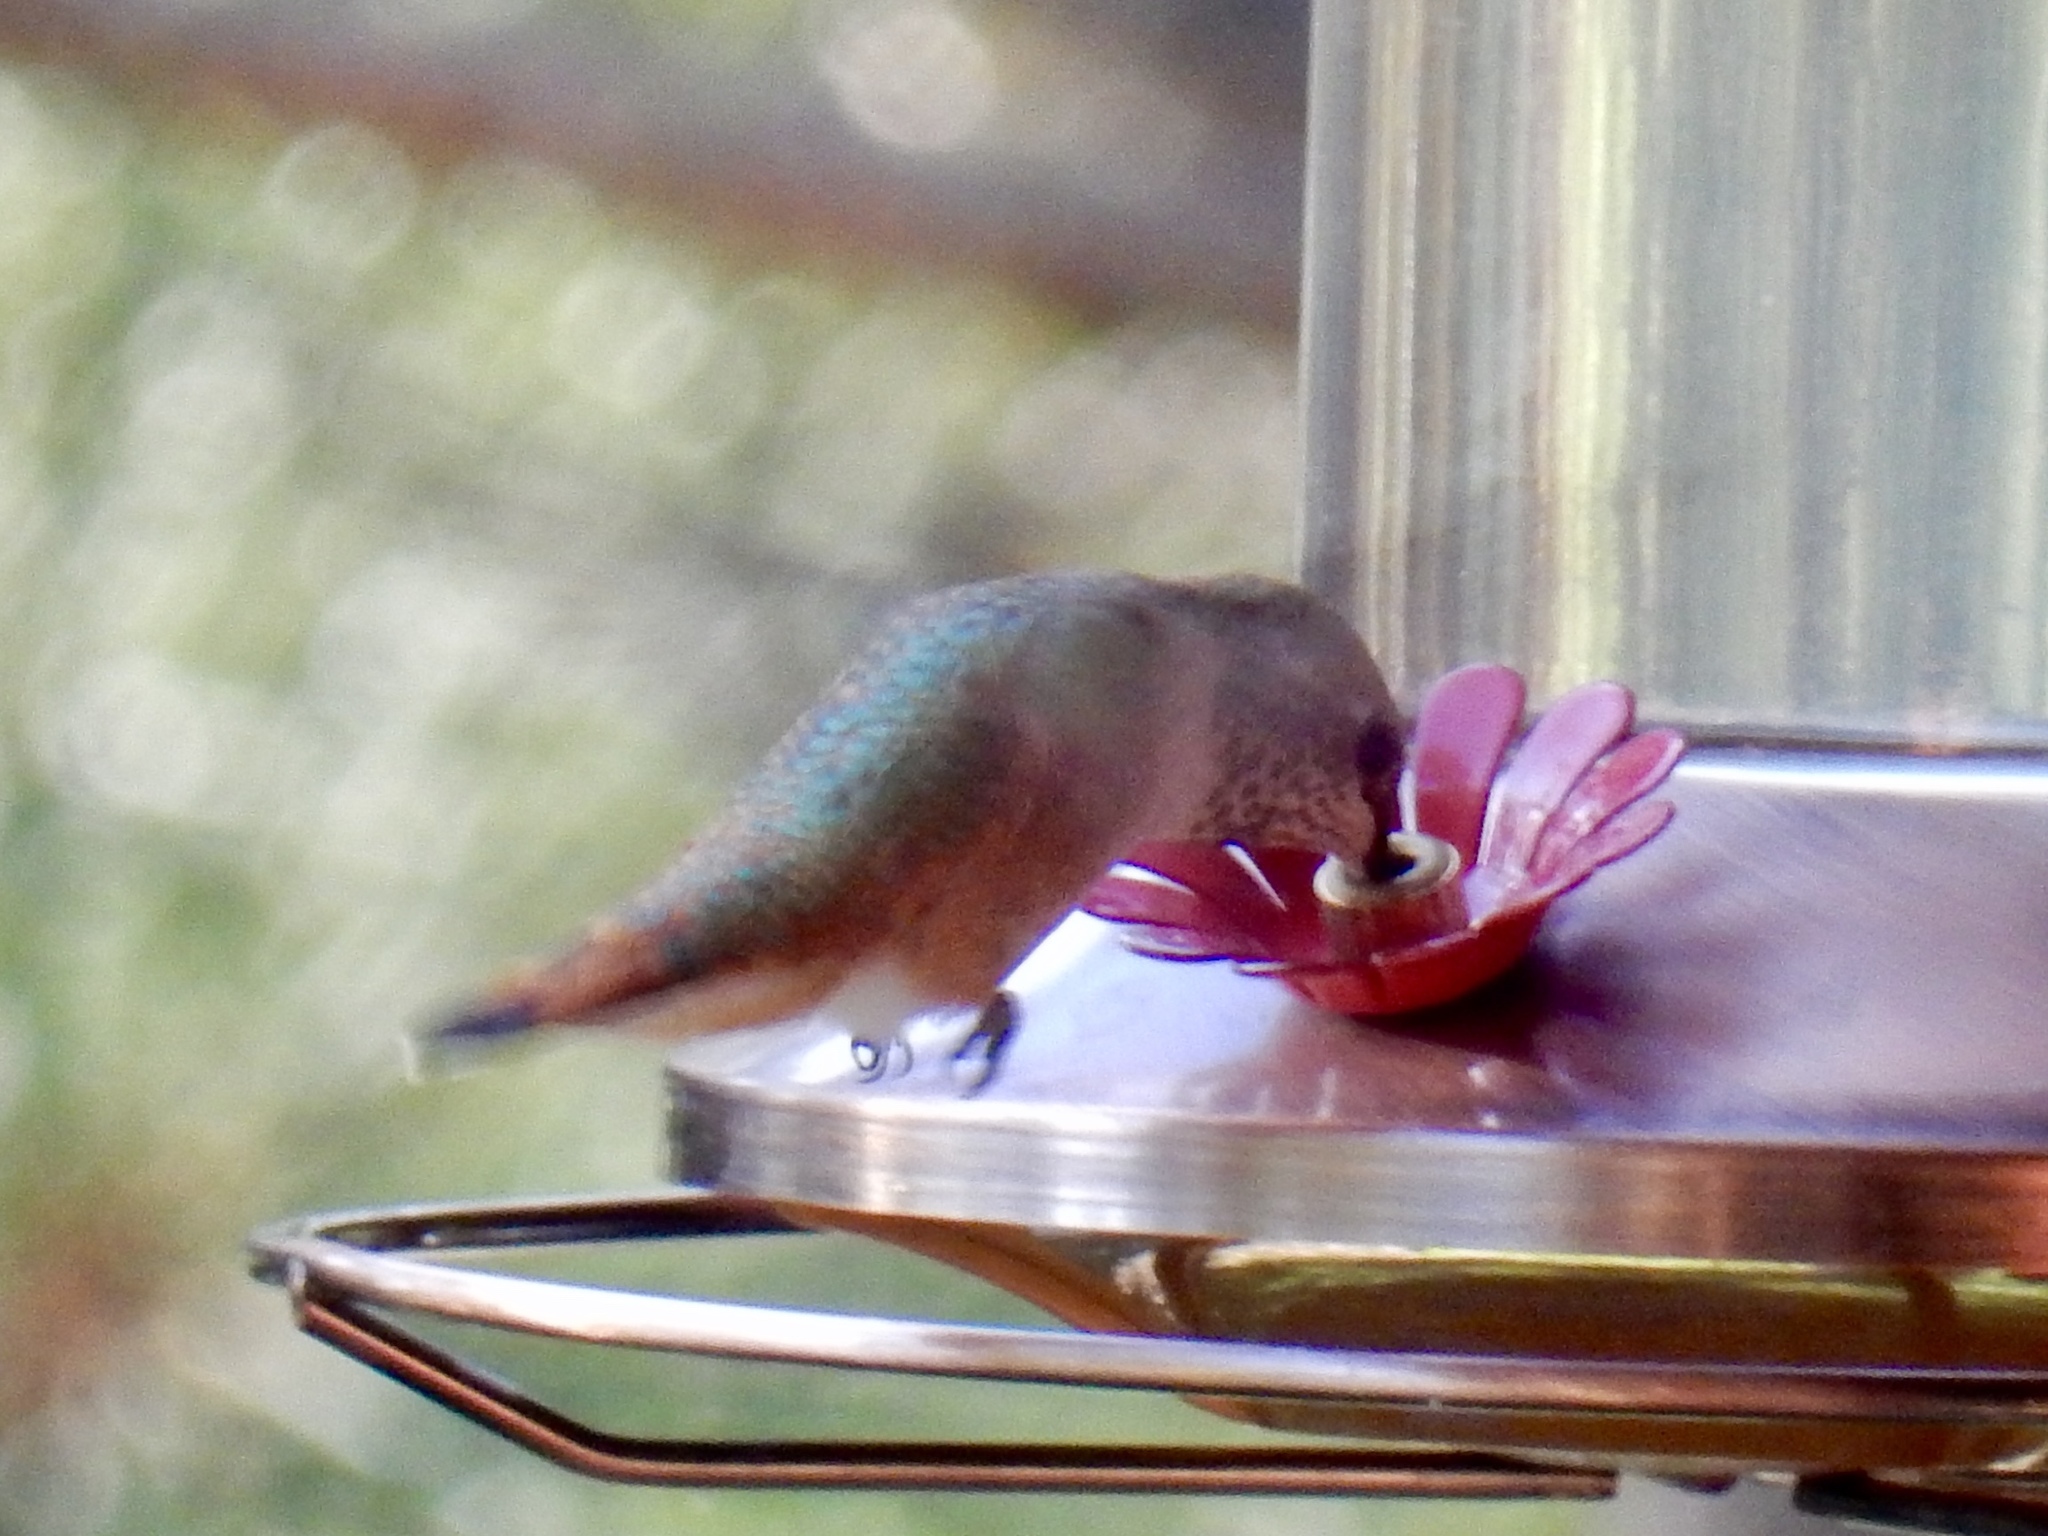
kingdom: Animalia
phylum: Chordata
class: Aves
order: Apodiformes
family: Trochilidae
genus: Selasphorus
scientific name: Selasphorus rufus
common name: Rufous hummingbird
